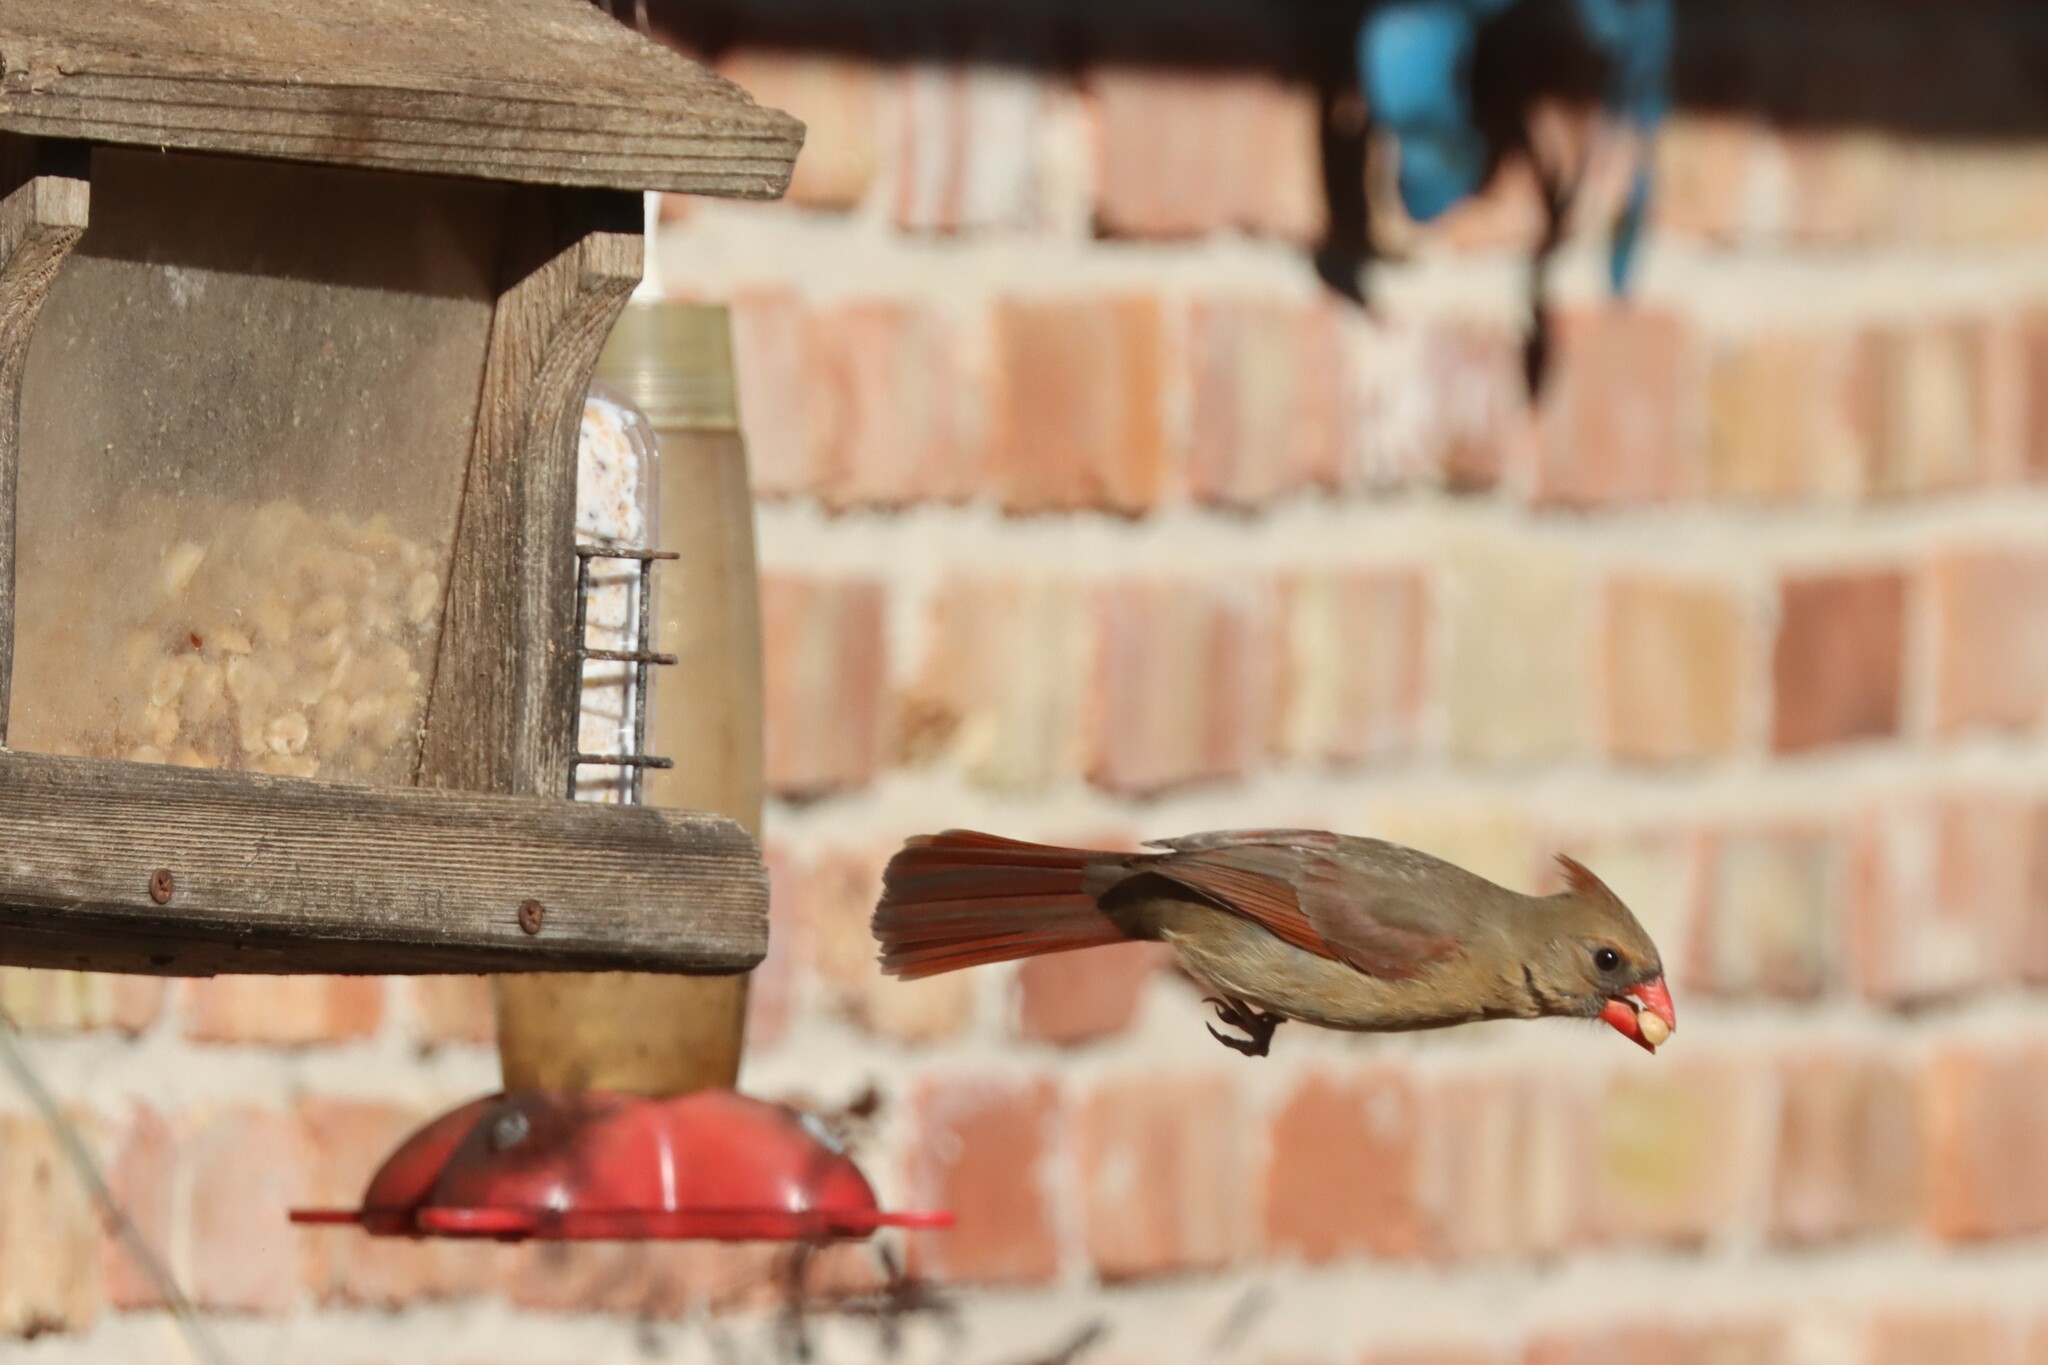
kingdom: Animalia
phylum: Chordata
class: Aves
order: Passeriformes
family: Cardinalidae
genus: Cardinalis
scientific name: Cardinalis cardinalis
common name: Northern cardinal
